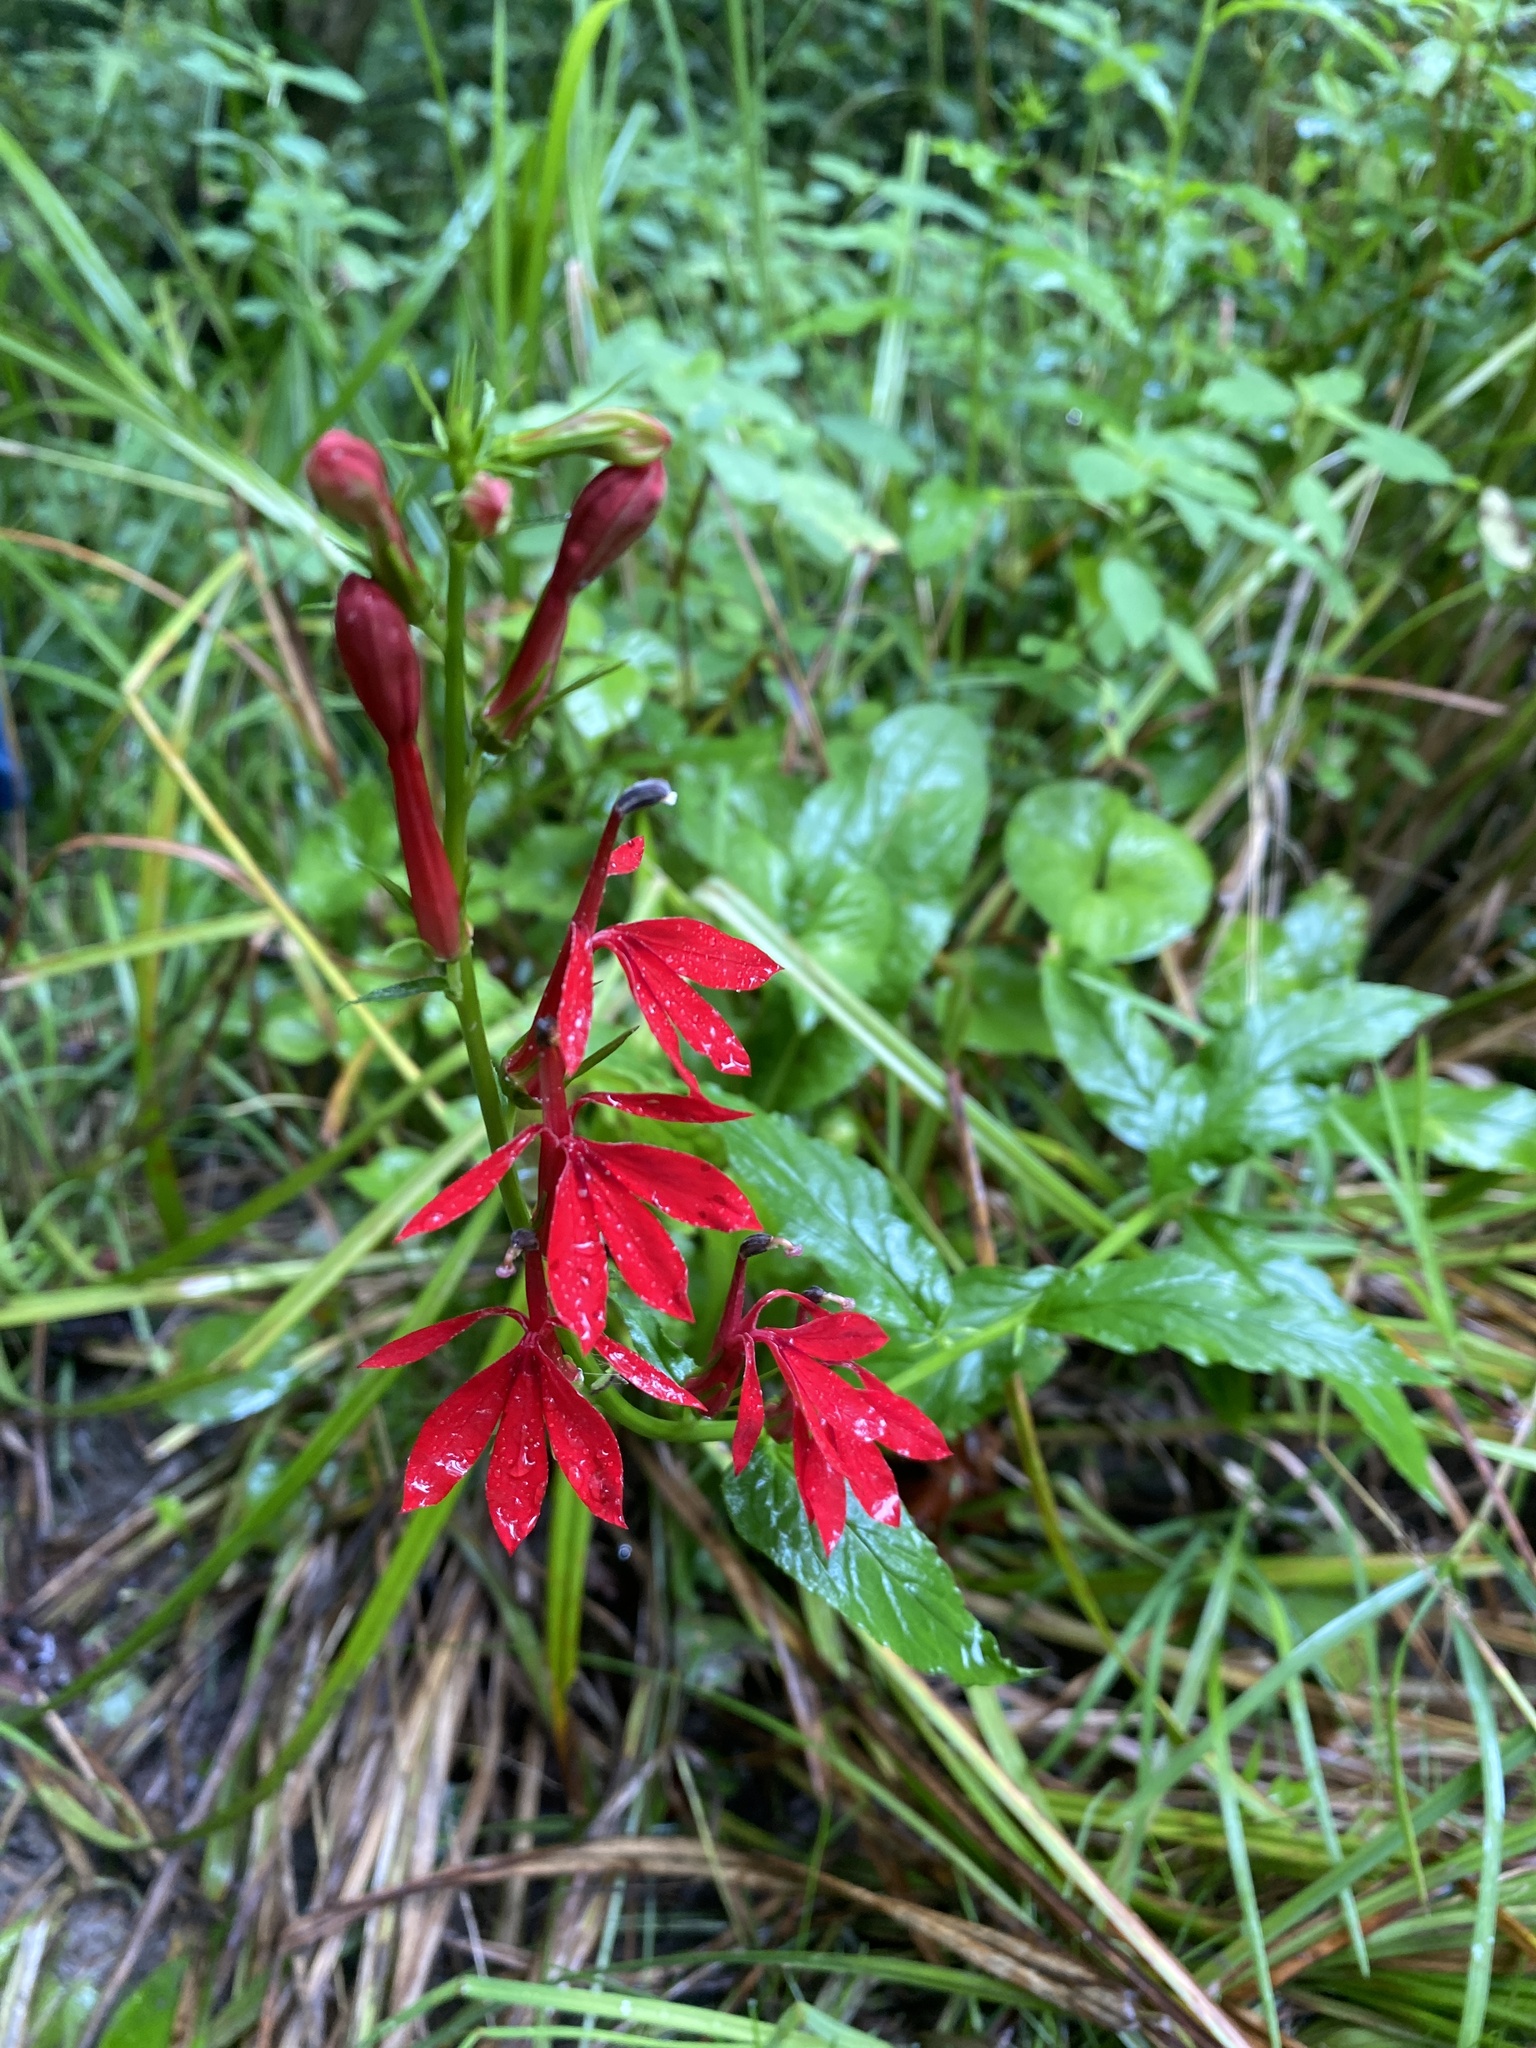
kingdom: Plantae
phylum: Tracheophyta
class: Magnoliopsida
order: Asterales
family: Campanulaceae
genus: Lobelia
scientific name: Lobelia cardinalis
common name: Cardinal flower
